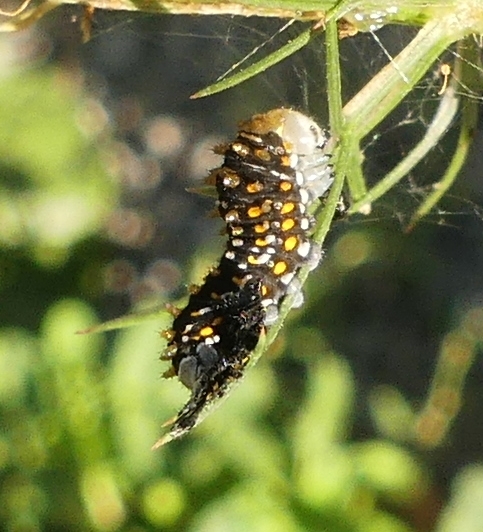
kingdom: Animalia
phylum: Arthropoda
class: Insecta
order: Lepidoptera
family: Papilionidae
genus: Papilio
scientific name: Papilio polyxenes
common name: Black swallowtail
